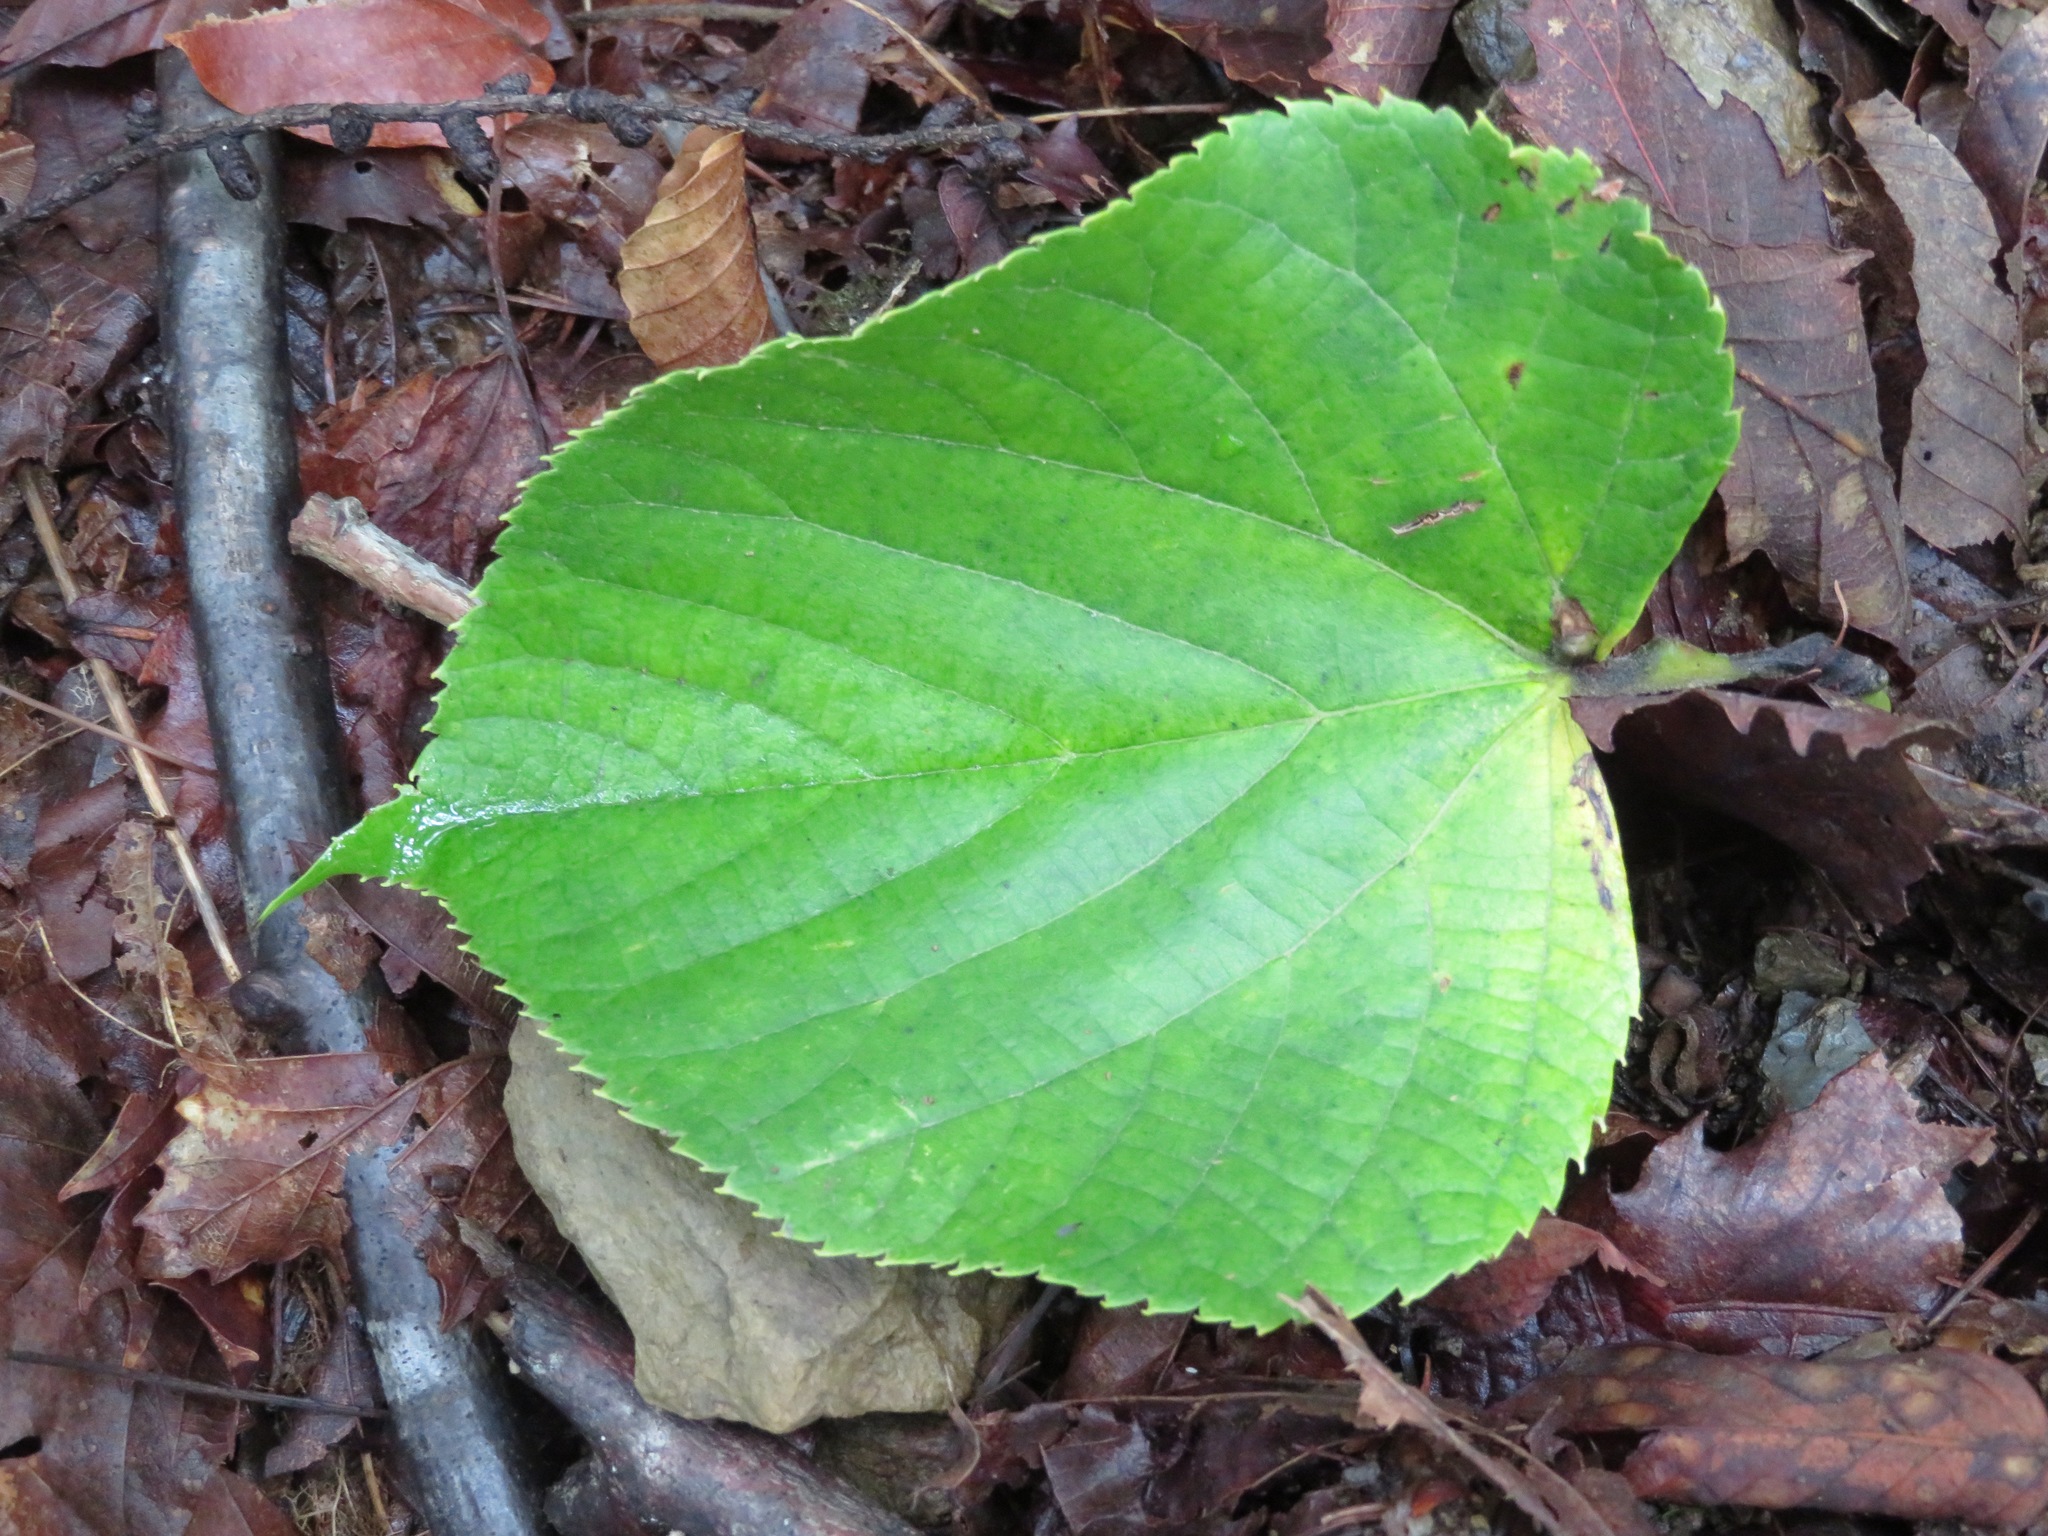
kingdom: Plantae
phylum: Tracheophyta
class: Magnoliopsida
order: Malvales
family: Malvaceae
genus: Tilia
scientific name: Tilia japonica
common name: Japanese lime
